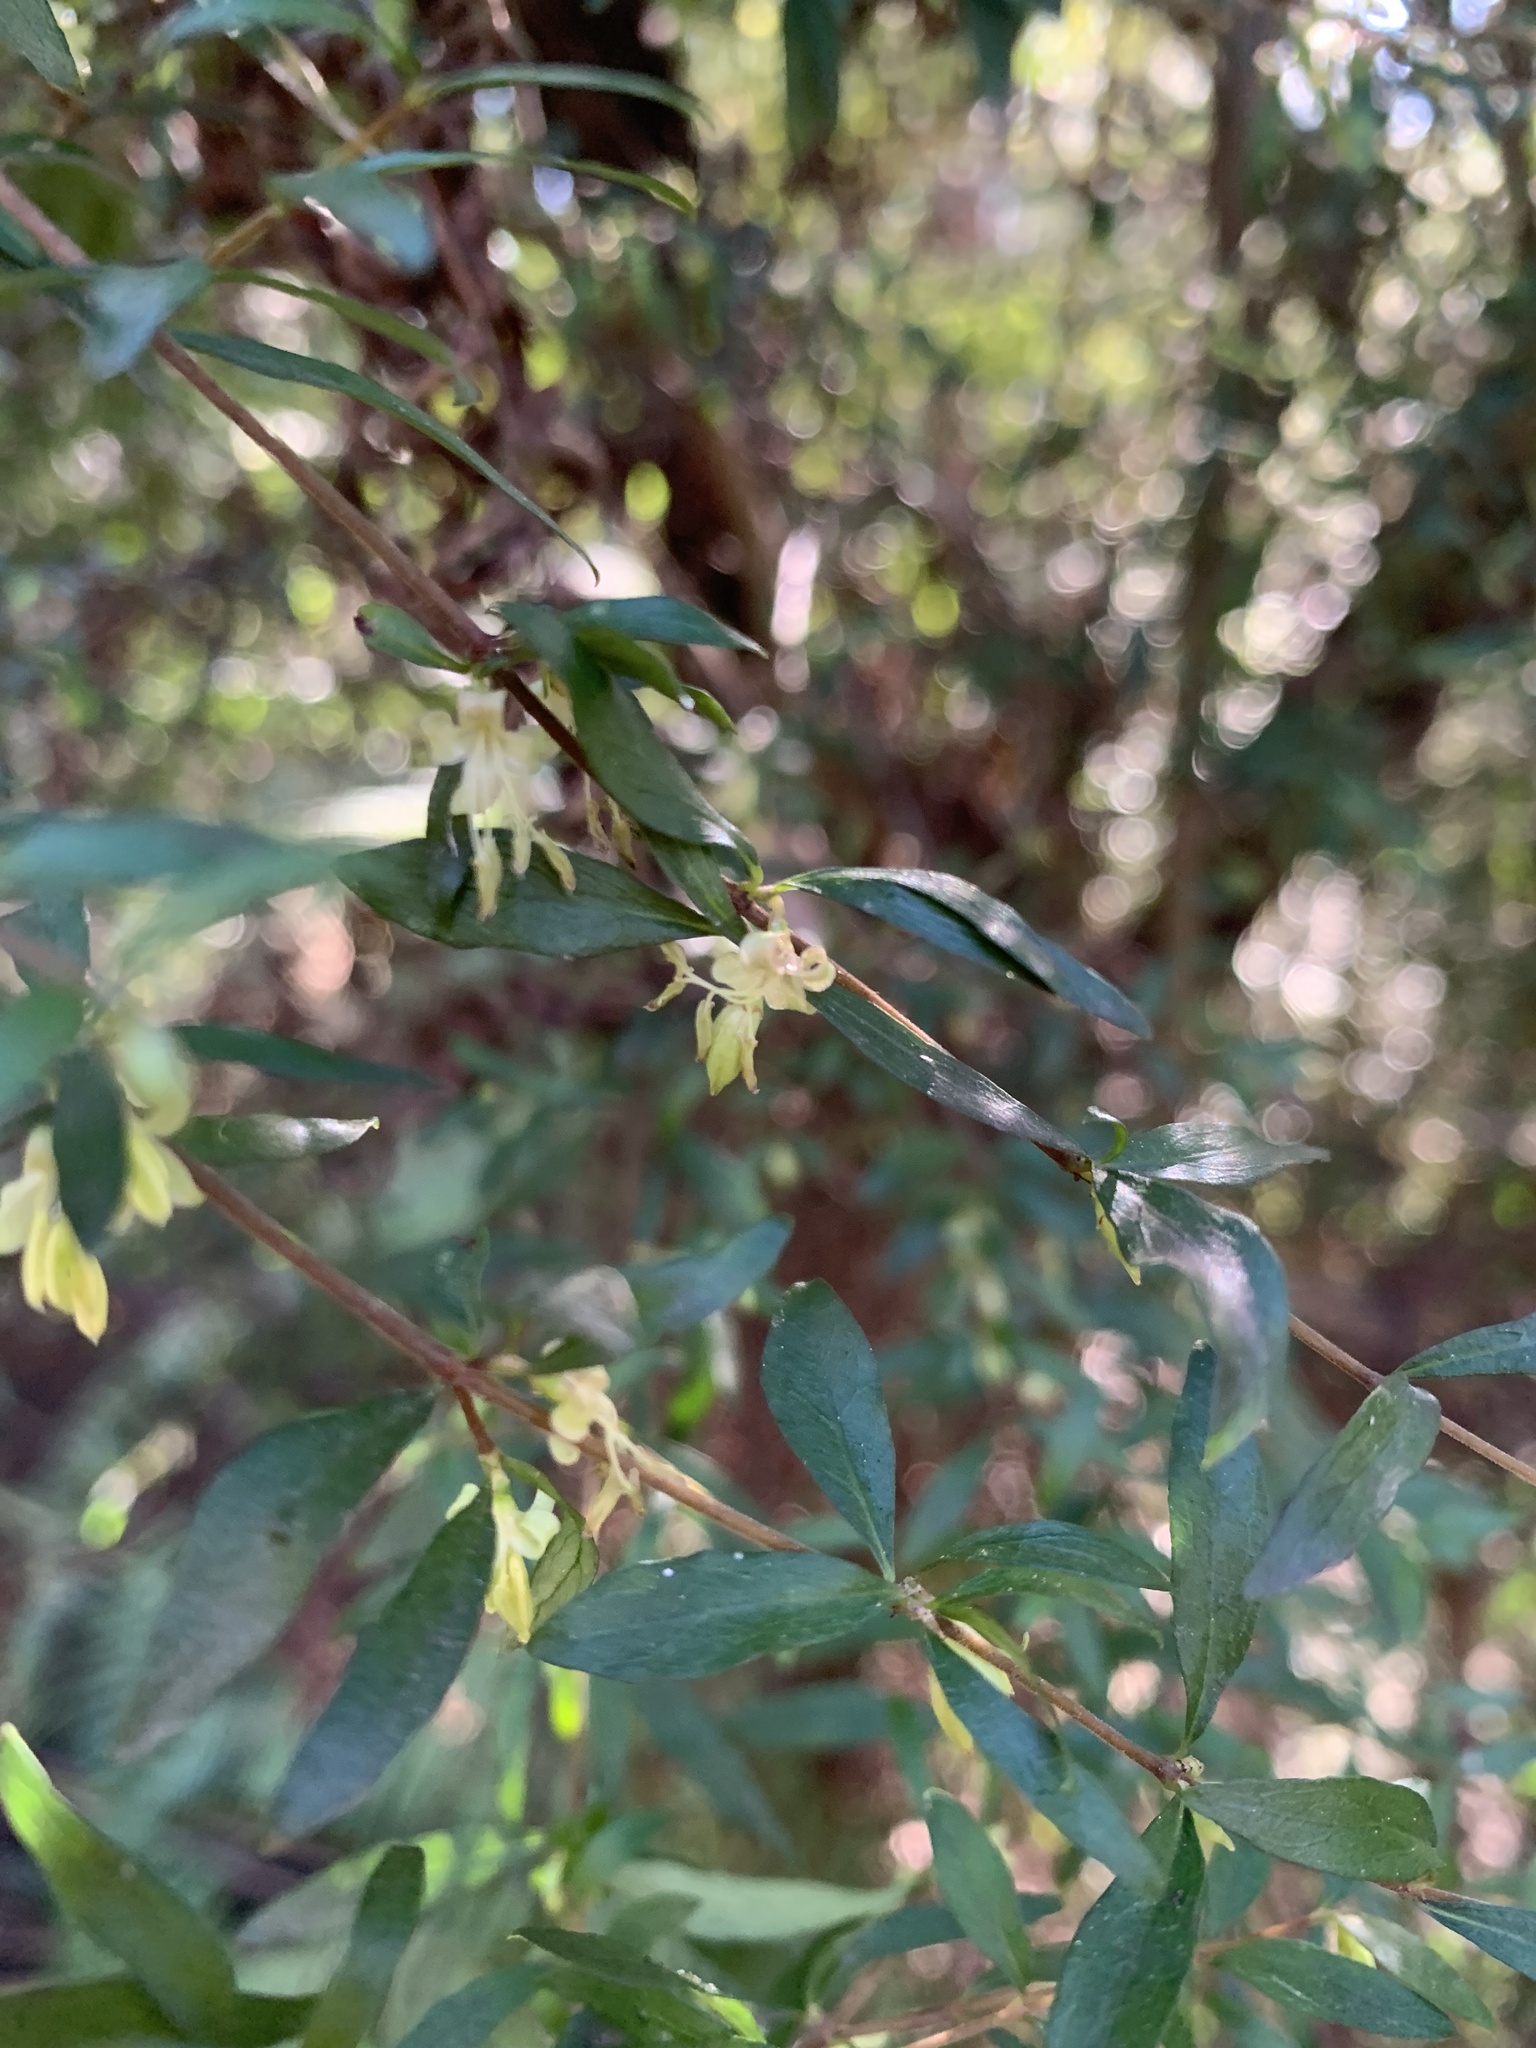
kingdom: Plantae
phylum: Tracheophyta
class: Magnoliopsida
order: Gentianales
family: Rubiaceae
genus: Coprosma
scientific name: Coprosma quadrifida
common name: Prickly currantbush
